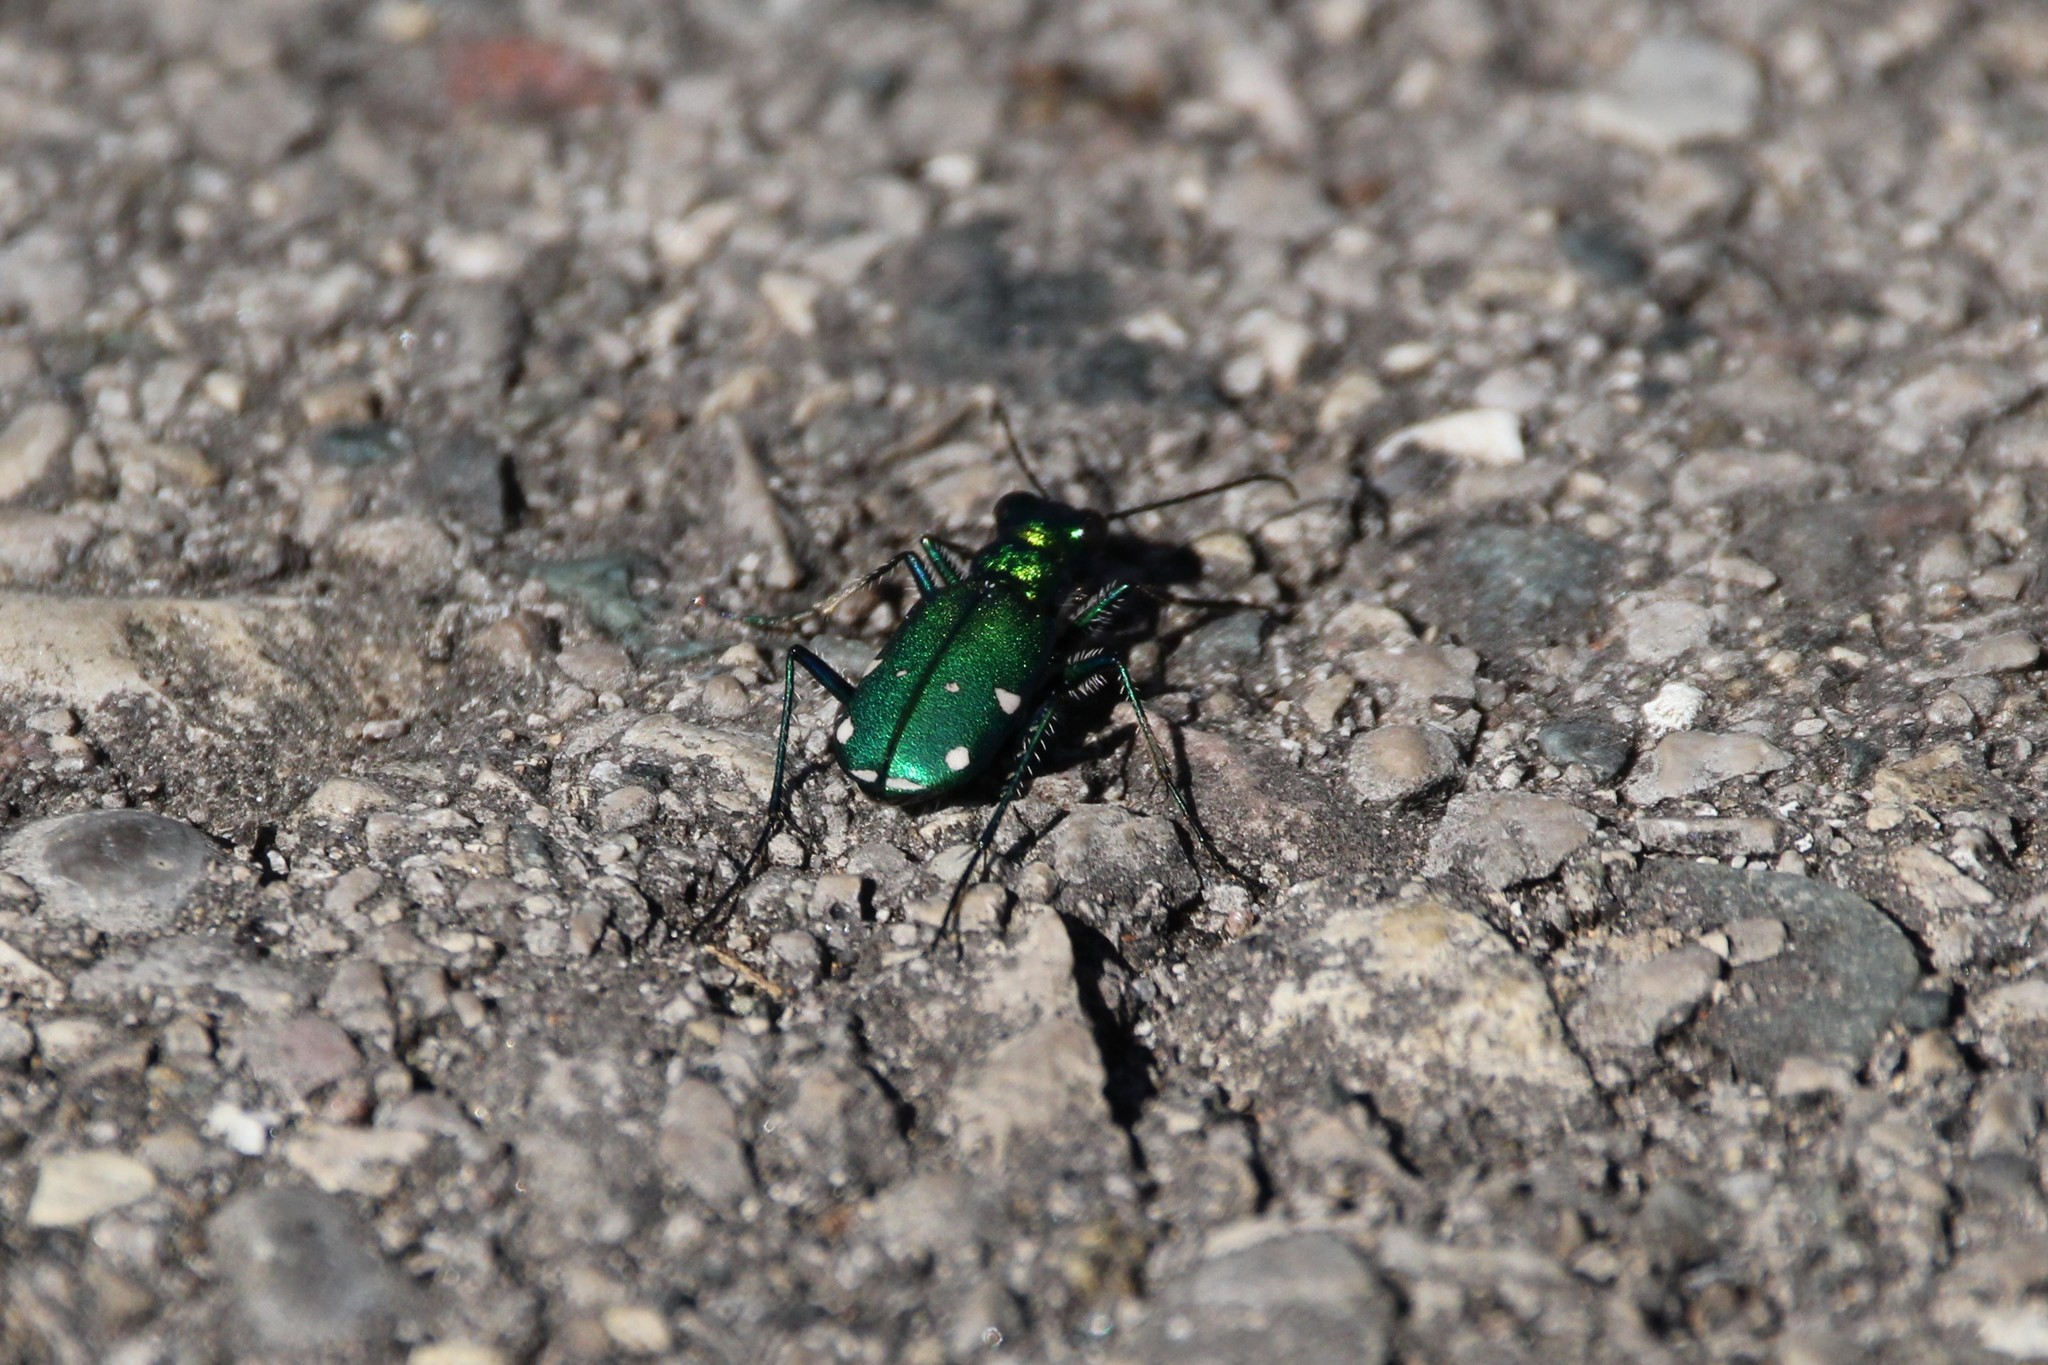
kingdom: Animalia
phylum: Arthropoda
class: Insecta
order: Coleoptera
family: Carabidae
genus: Cicindela
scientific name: Cicindela sexguttata
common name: Six-spotted tiger beetle
